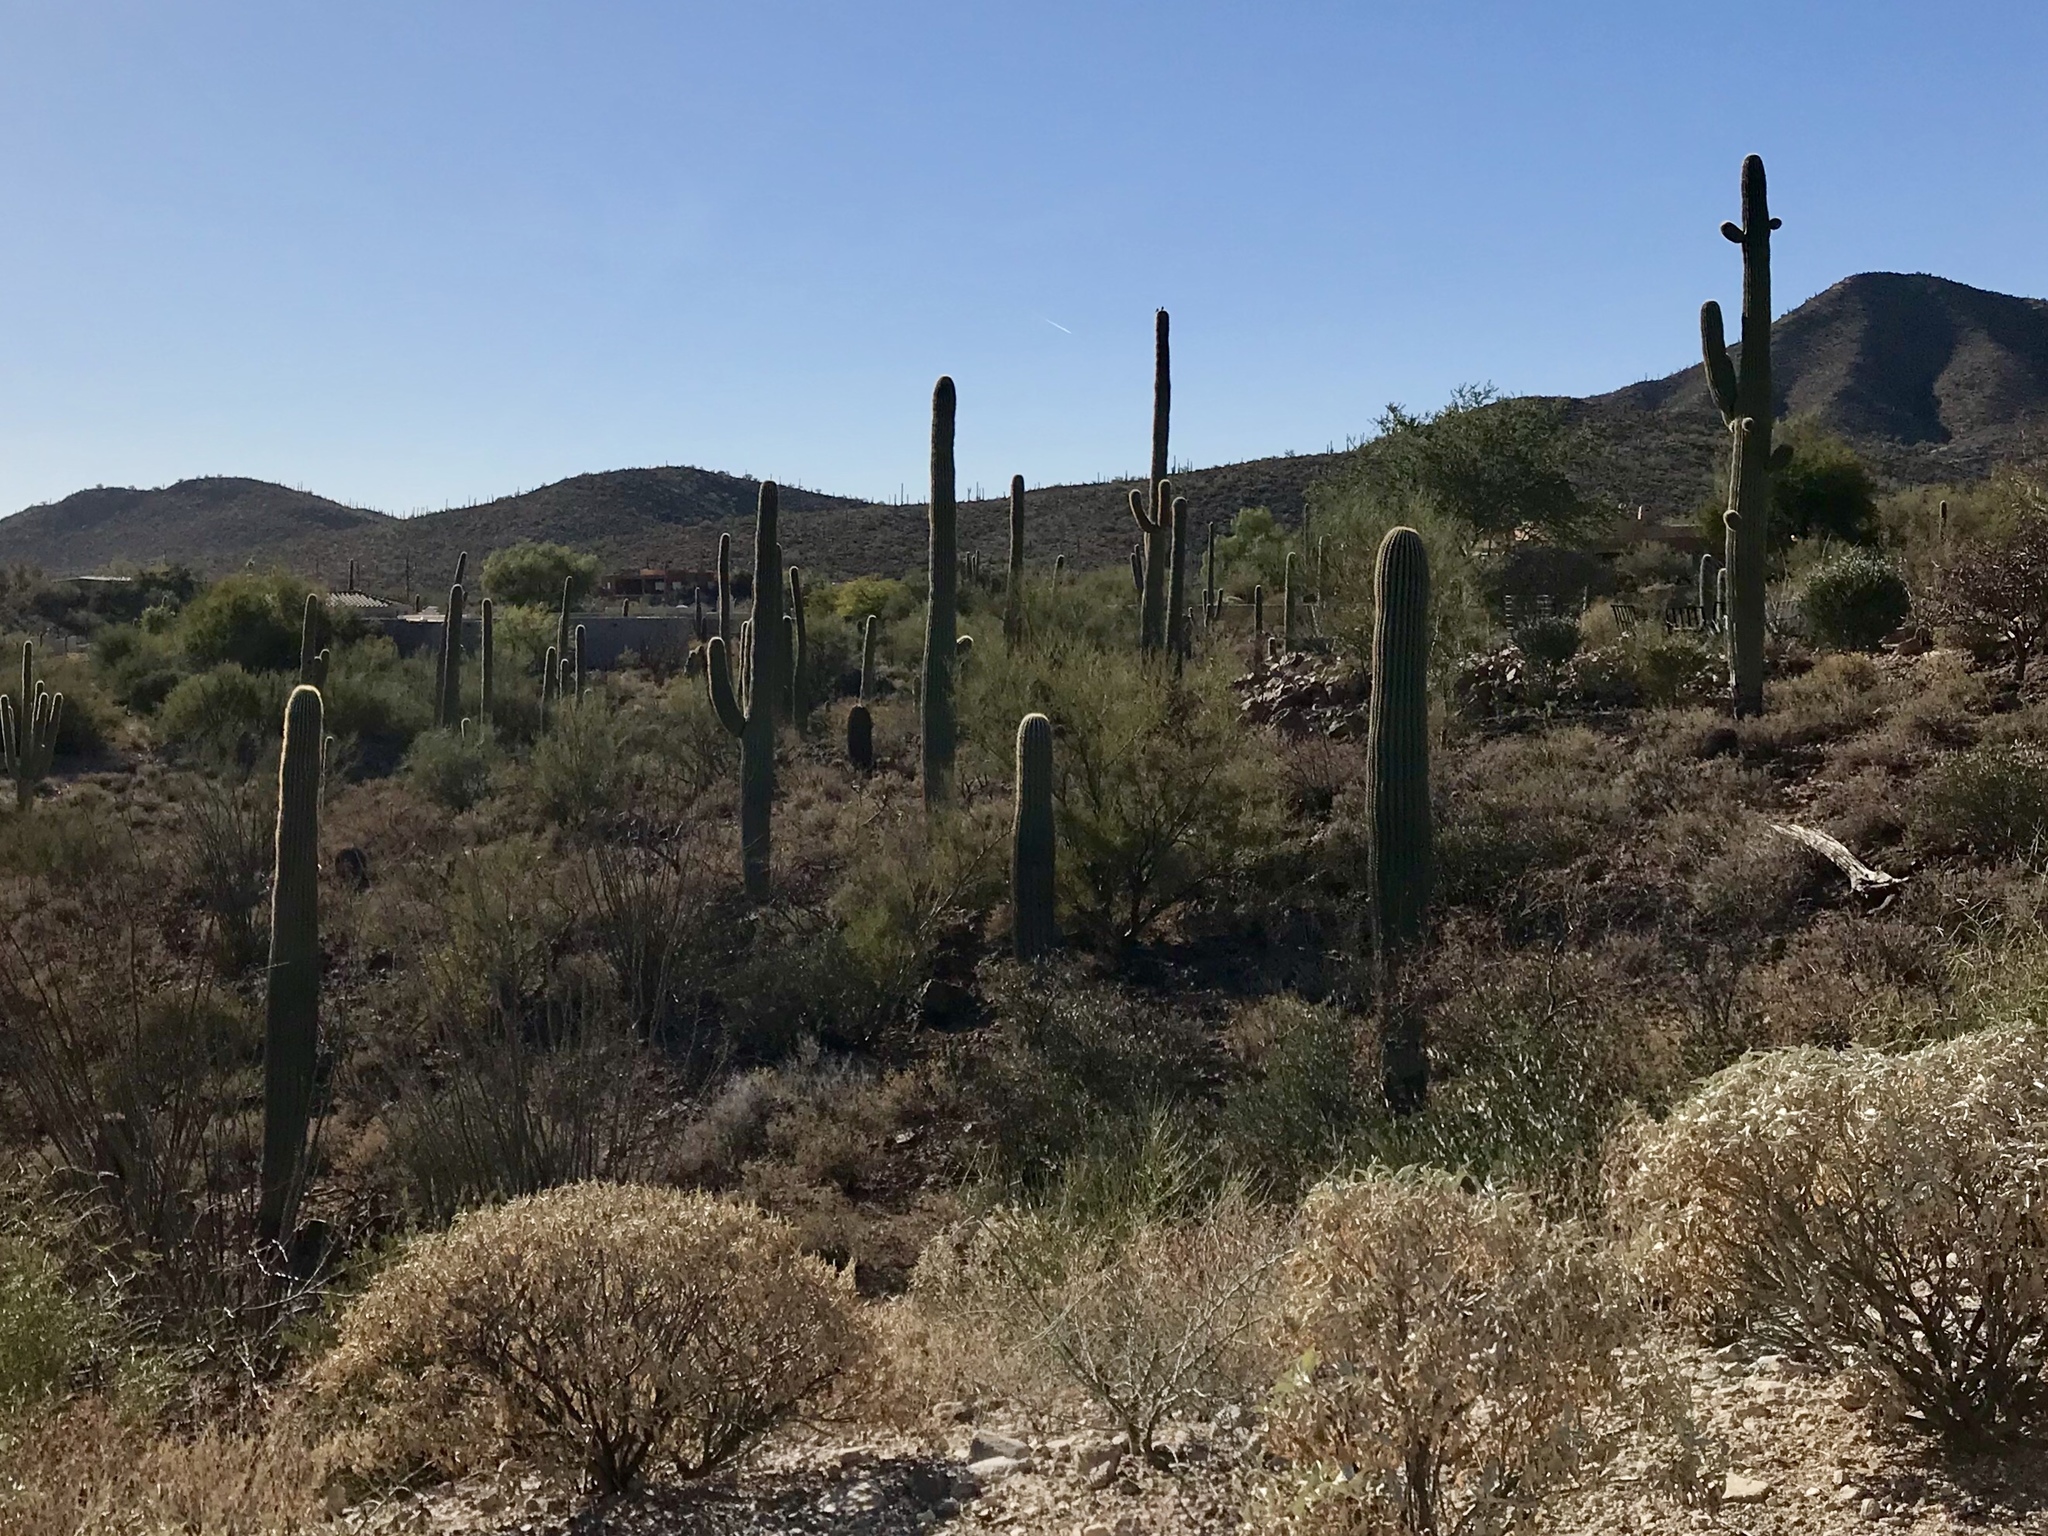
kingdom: Plantae
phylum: Tracheophyta
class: Magnoliopsida
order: Caryophyllales
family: Cactaceae
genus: Carnegiea
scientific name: Carnegiea gigantea
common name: Saguaro
